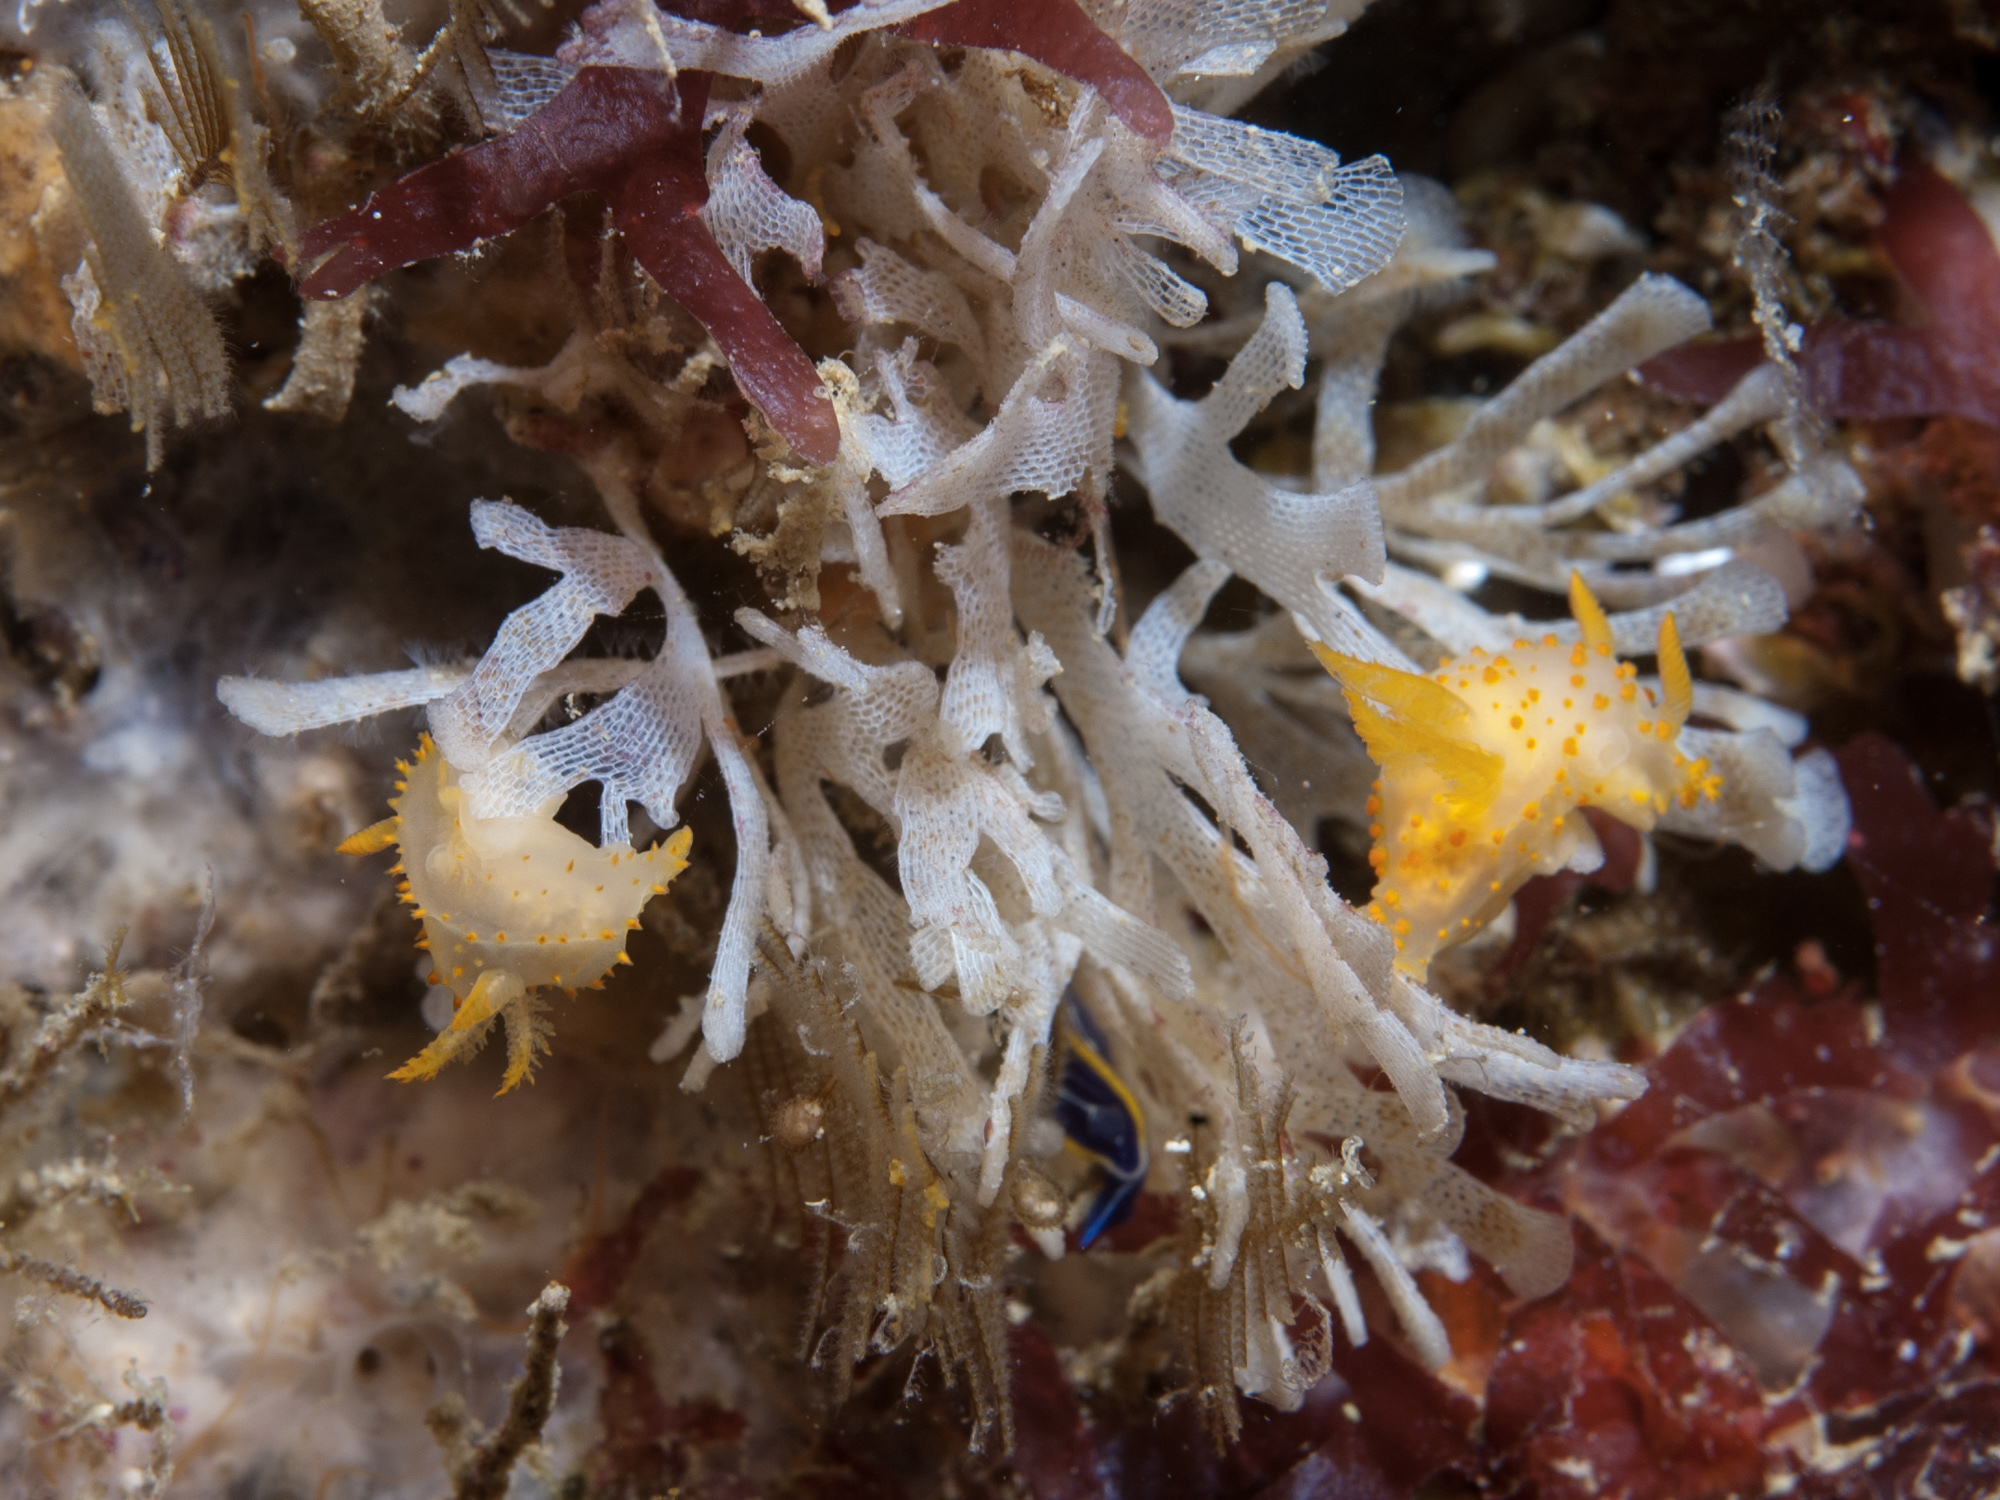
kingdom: Animalia
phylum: Mollusca
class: Gastropoda
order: Nudibranchia
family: Polyceridae
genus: Crimora
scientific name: Crimora papillata
